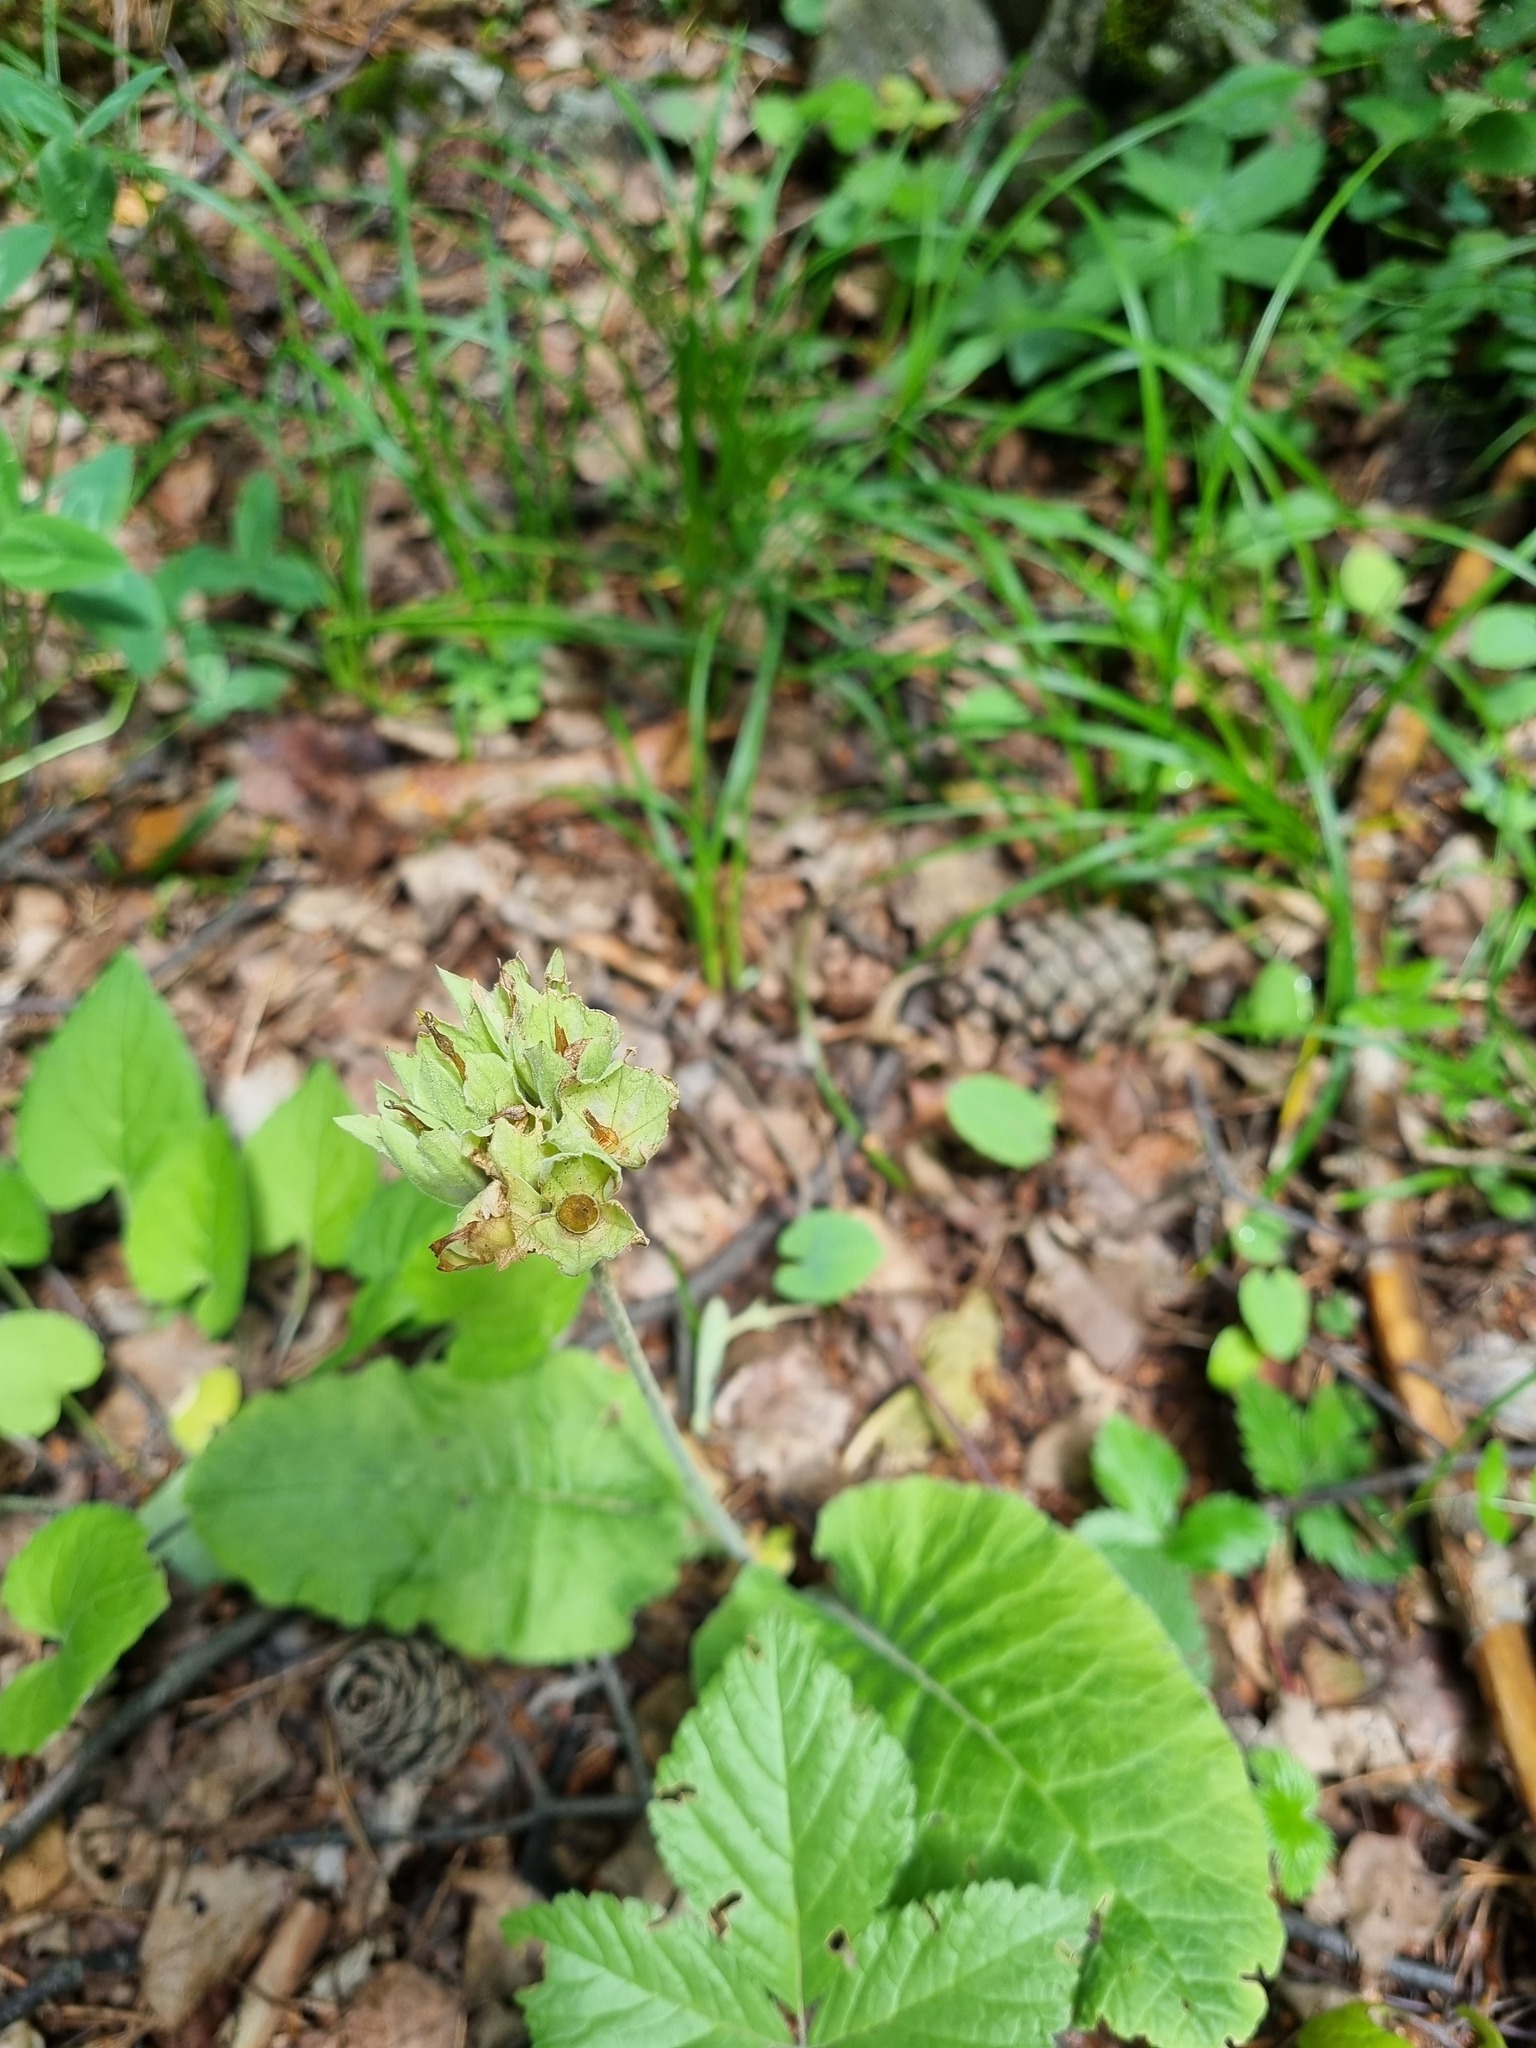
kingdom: Plantae
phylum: Tracheophyta
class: Magnoliopsida
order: Ericales
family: Primulaceae
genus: Primula
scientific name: Primula veris
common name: Cowslip
